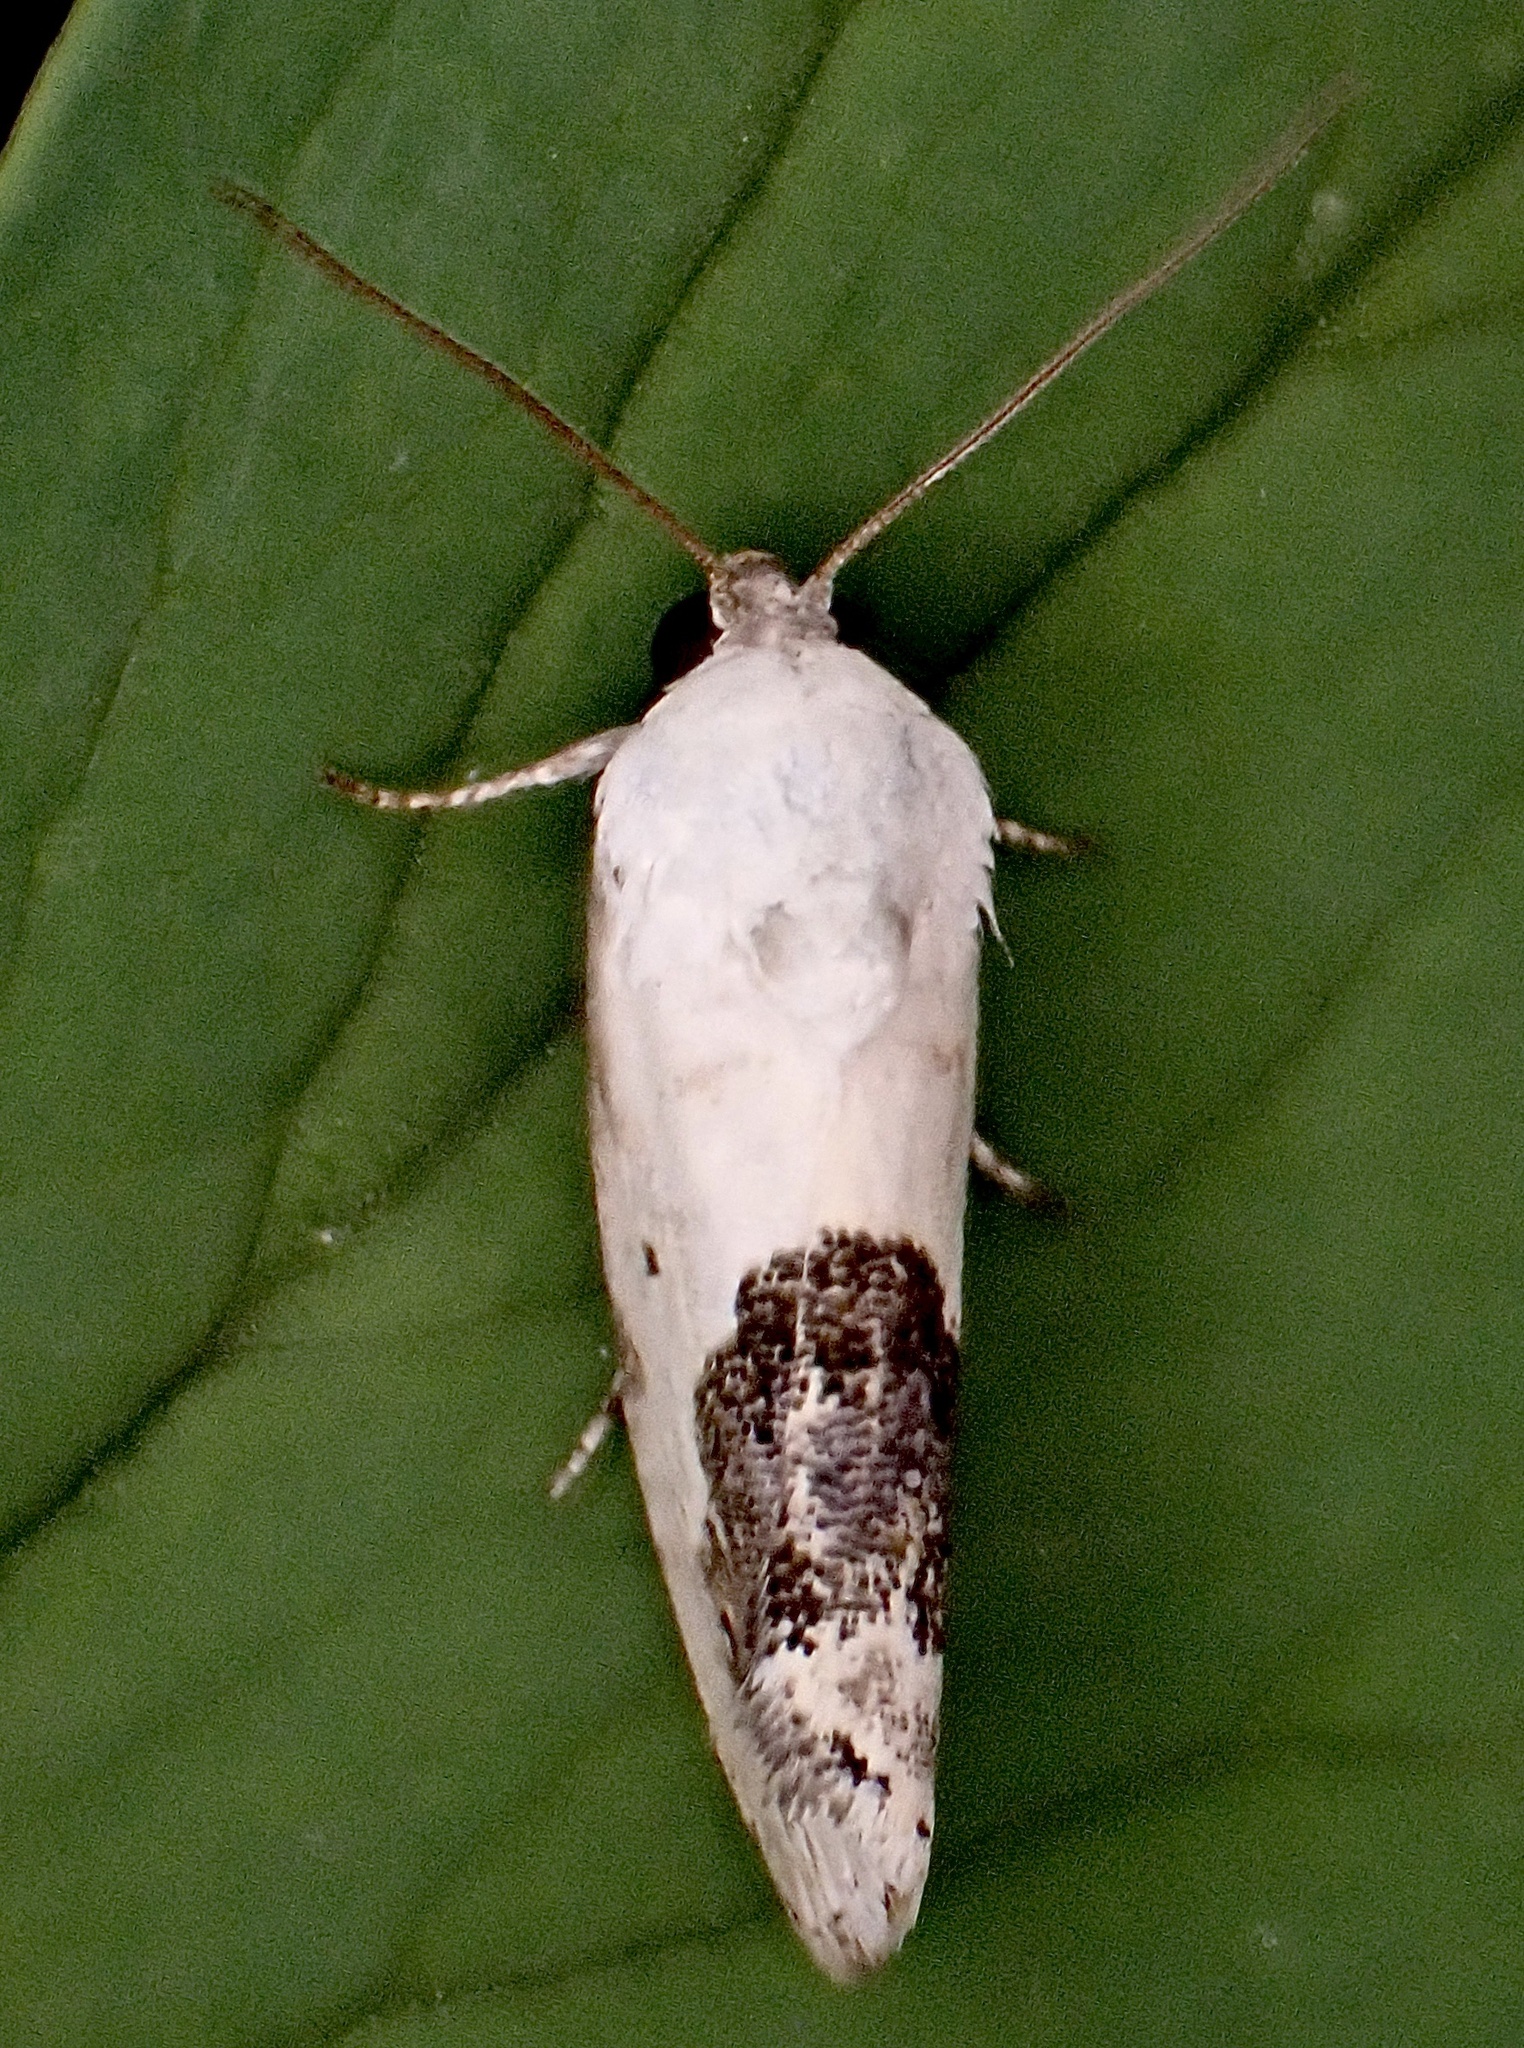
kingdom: Animalia
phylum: Arthropoda
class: Insecta
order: Lepidoptera
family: Noctuidae
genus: Acontia
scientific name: Acontia erastrioides
